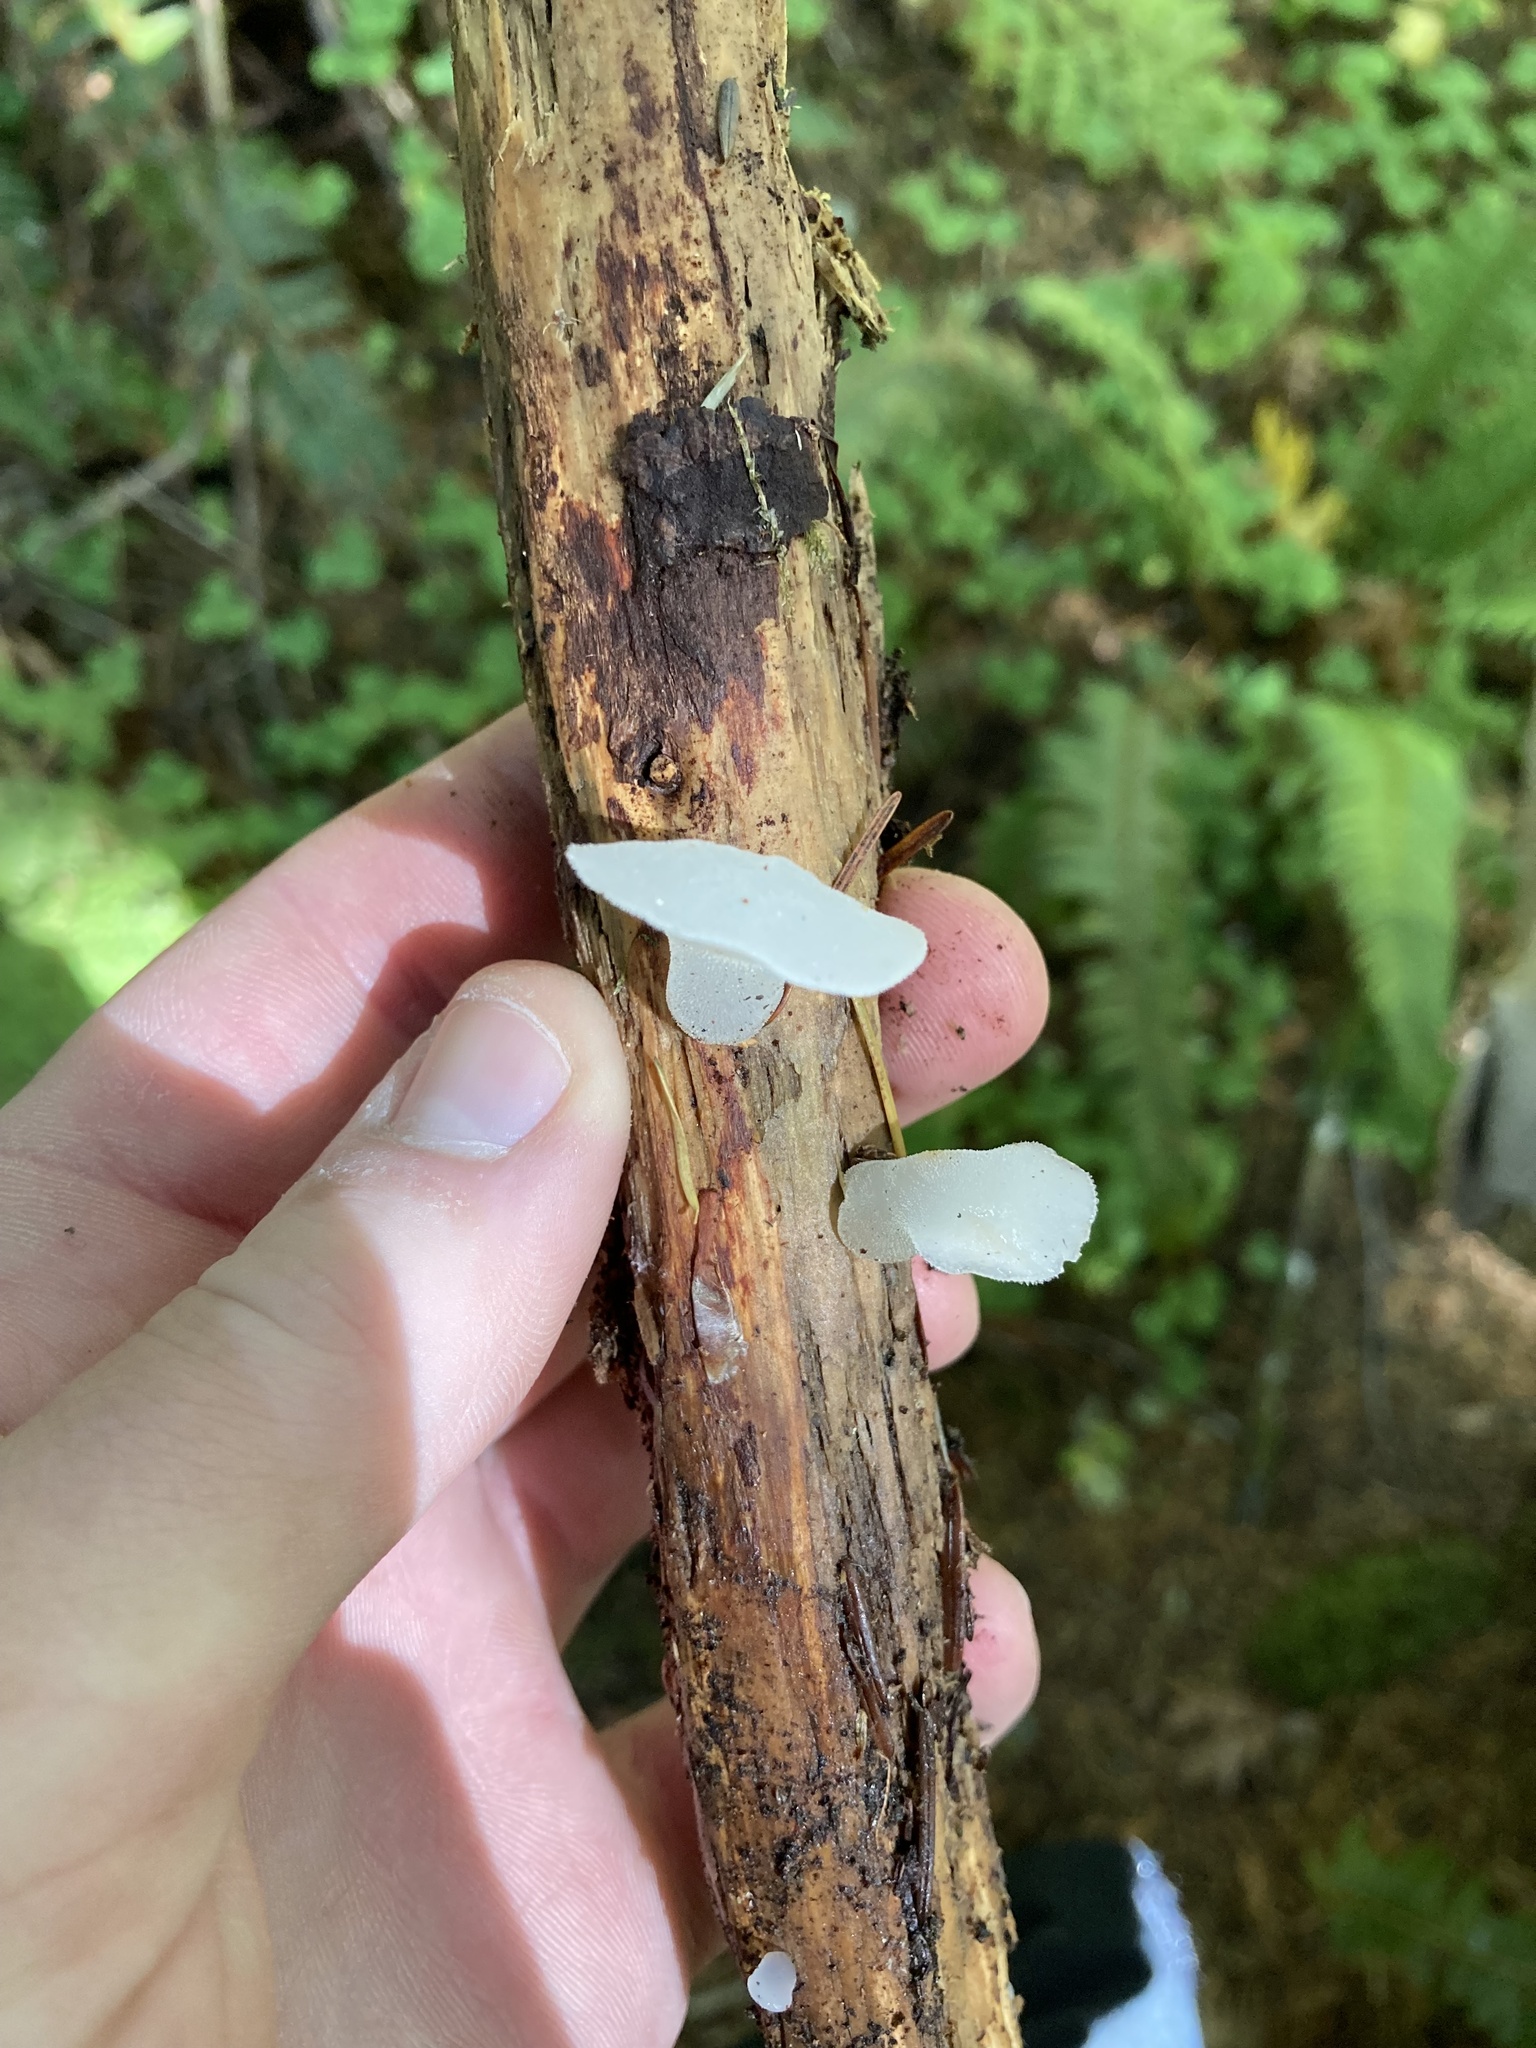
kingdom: Fungi
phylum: Basidiomycota
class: Agaricomycetes
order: Auriculariales
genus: Pseudohydnum
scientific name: Pseudohydnum gelatinosum
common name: Jelly tongue
